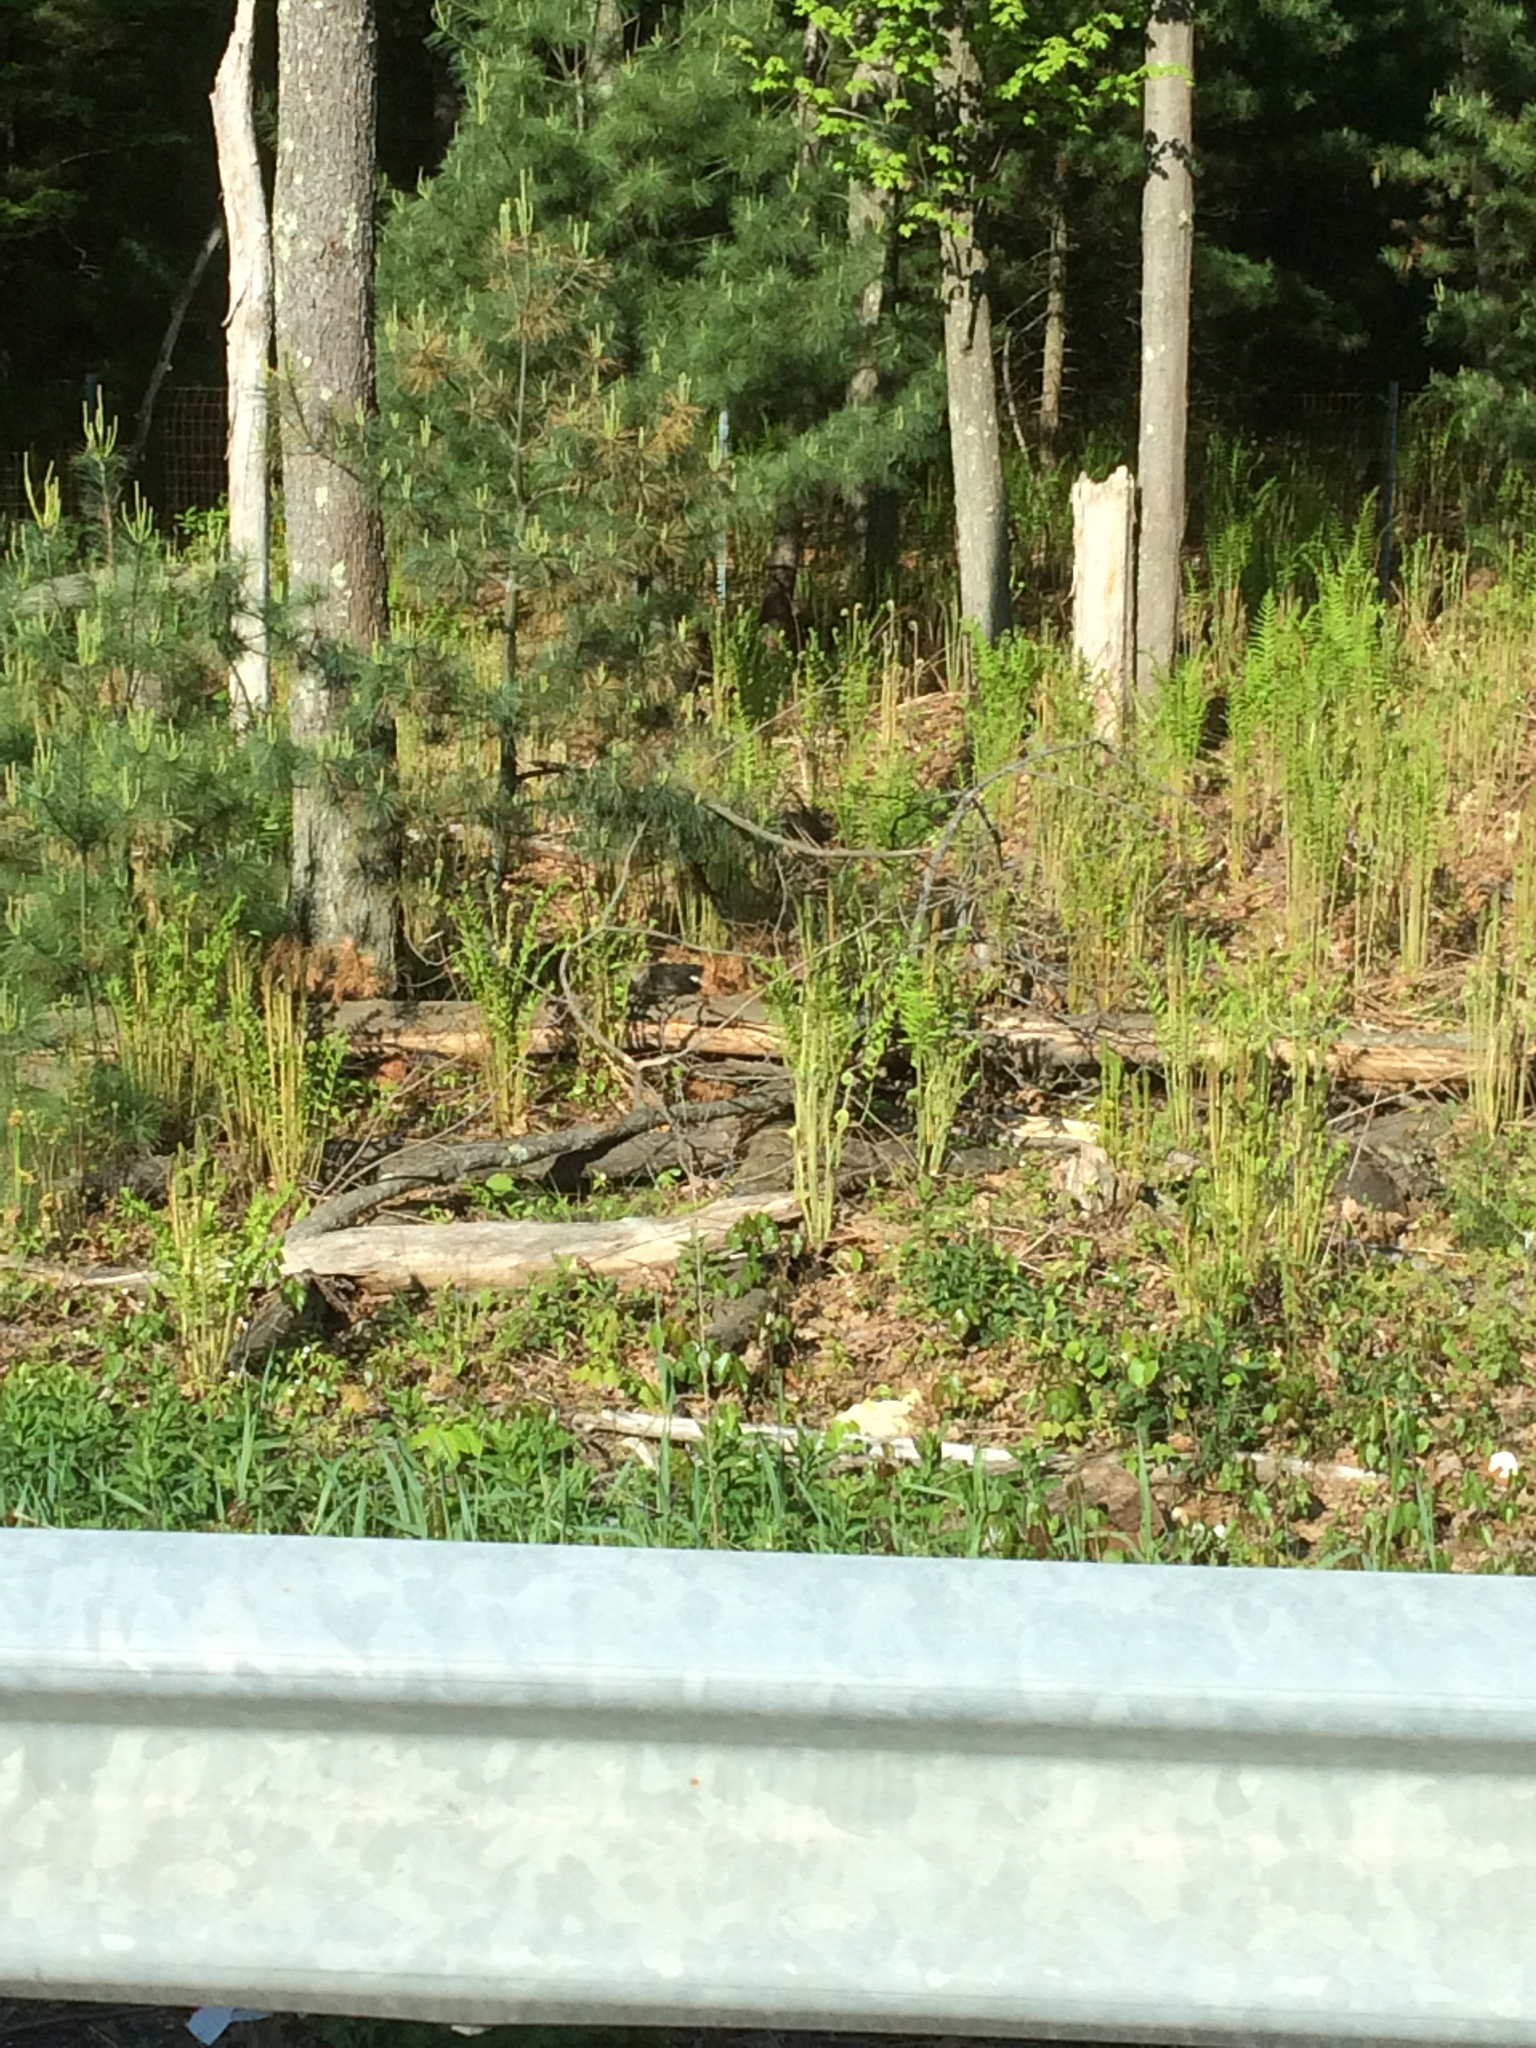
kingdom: Plantae
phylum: Tracheophyta
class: Polypodiopsida
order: Polypodiales
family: Onocleaceae
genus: Matteuccia
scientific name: Matteuccia struthiopteris
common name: Ostrich fern
